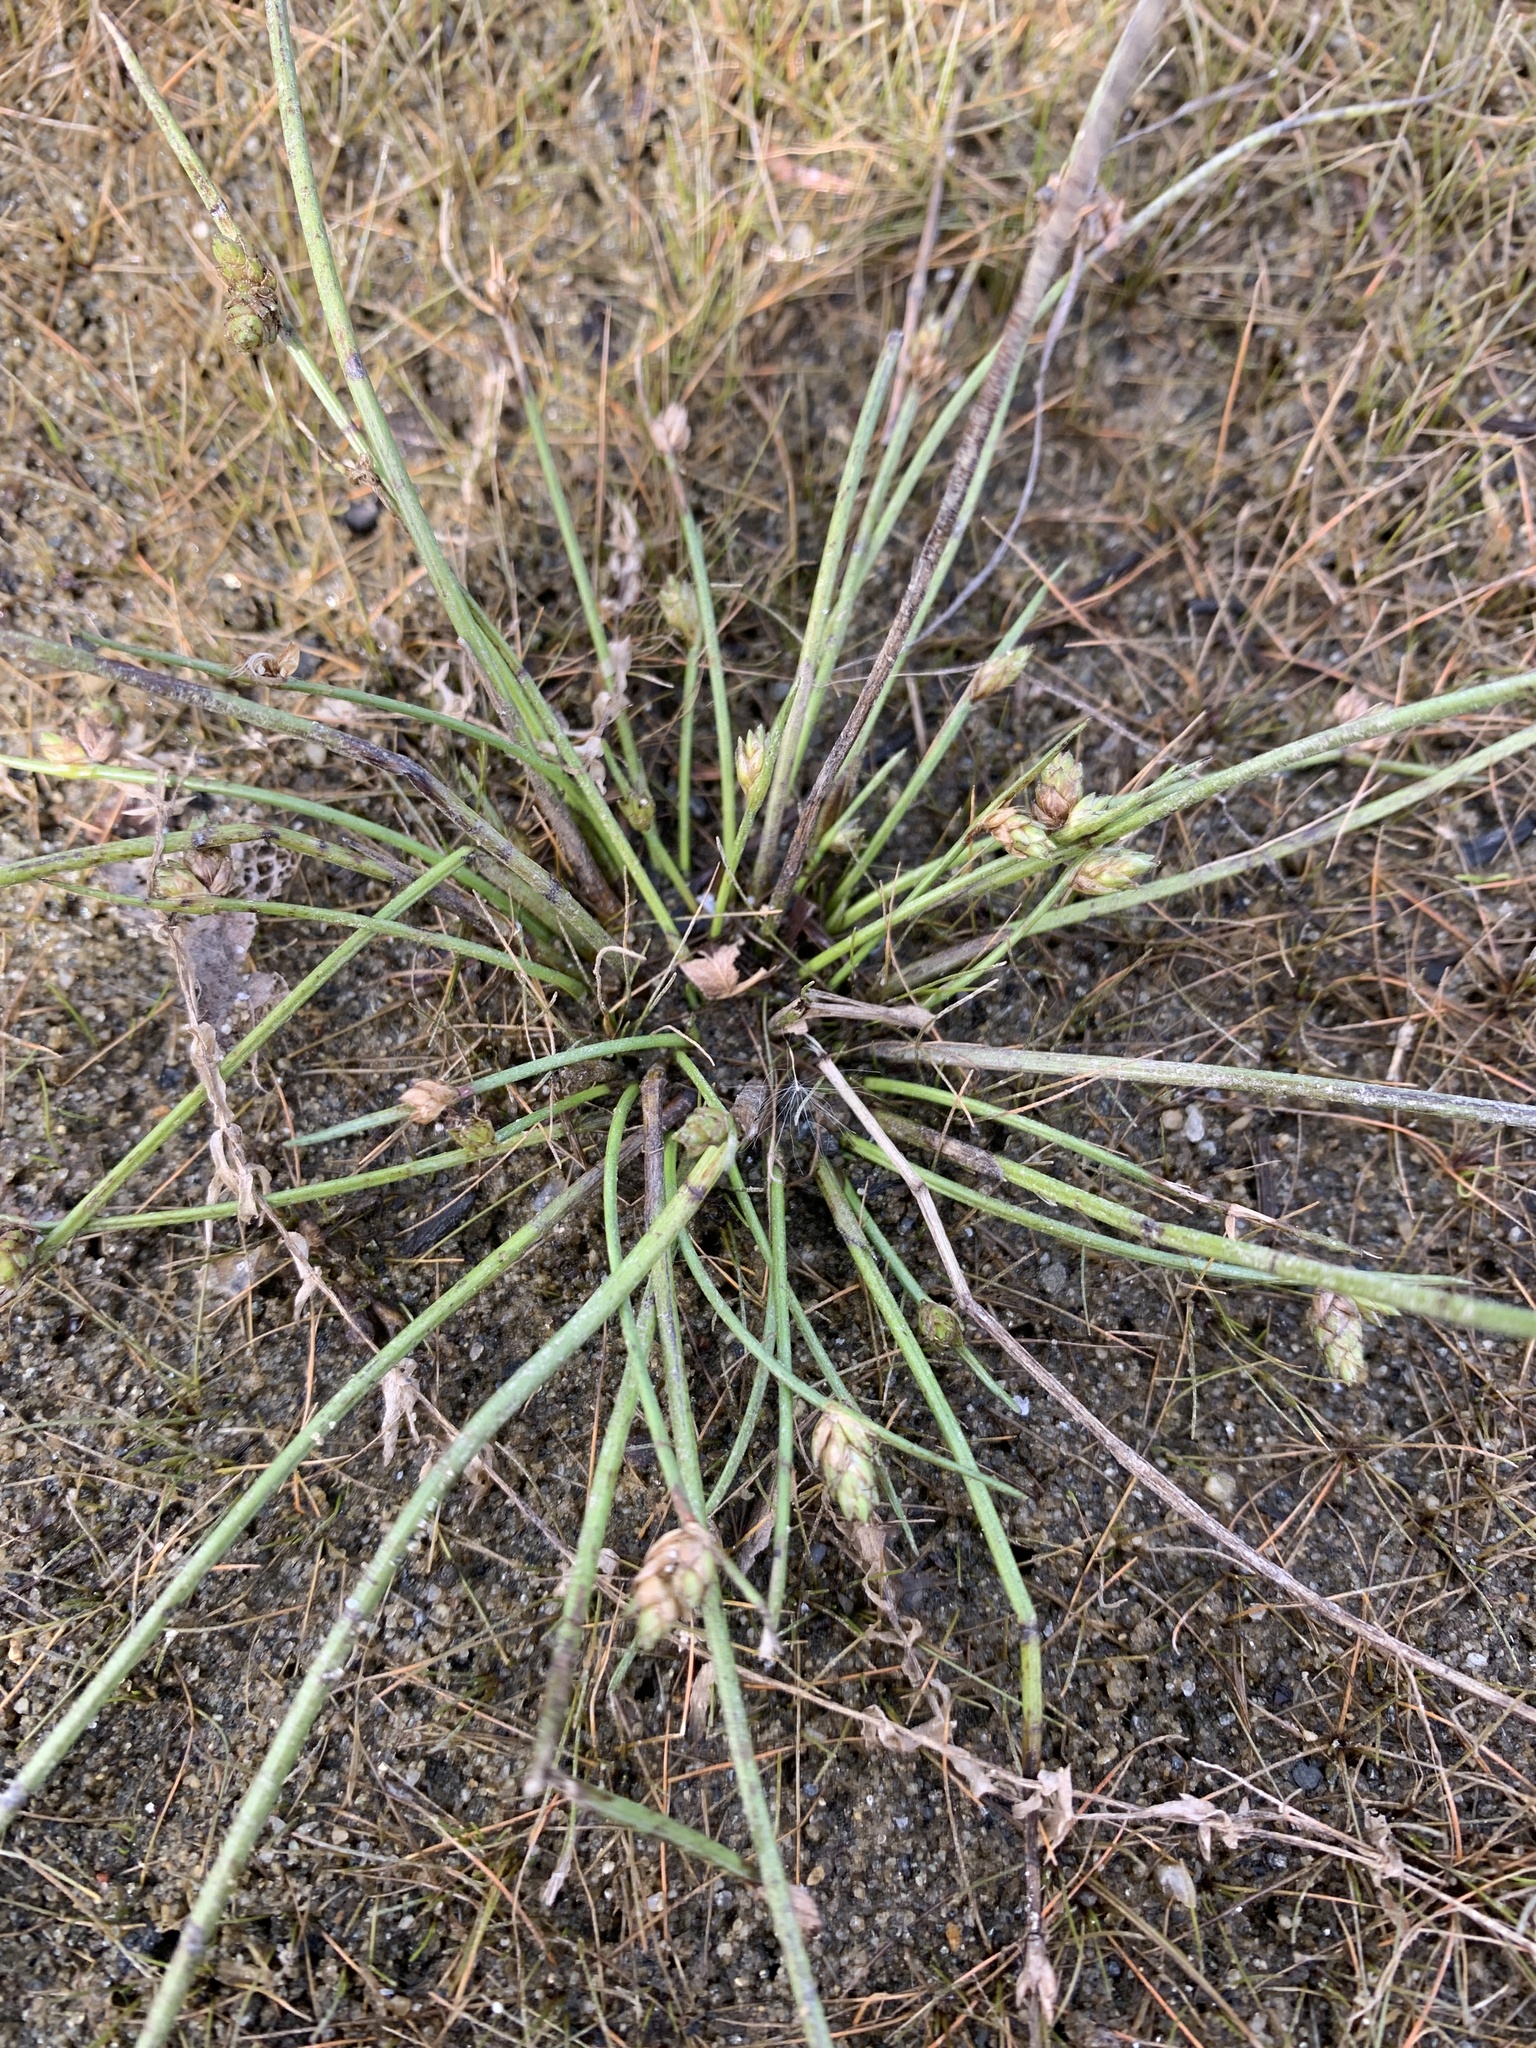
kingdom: Plantae
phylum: Tracheophyta
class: Liliopsida
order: Poales
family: Cyperaceae
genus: Schoenoplectiella
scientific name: Schoenoplectiella
